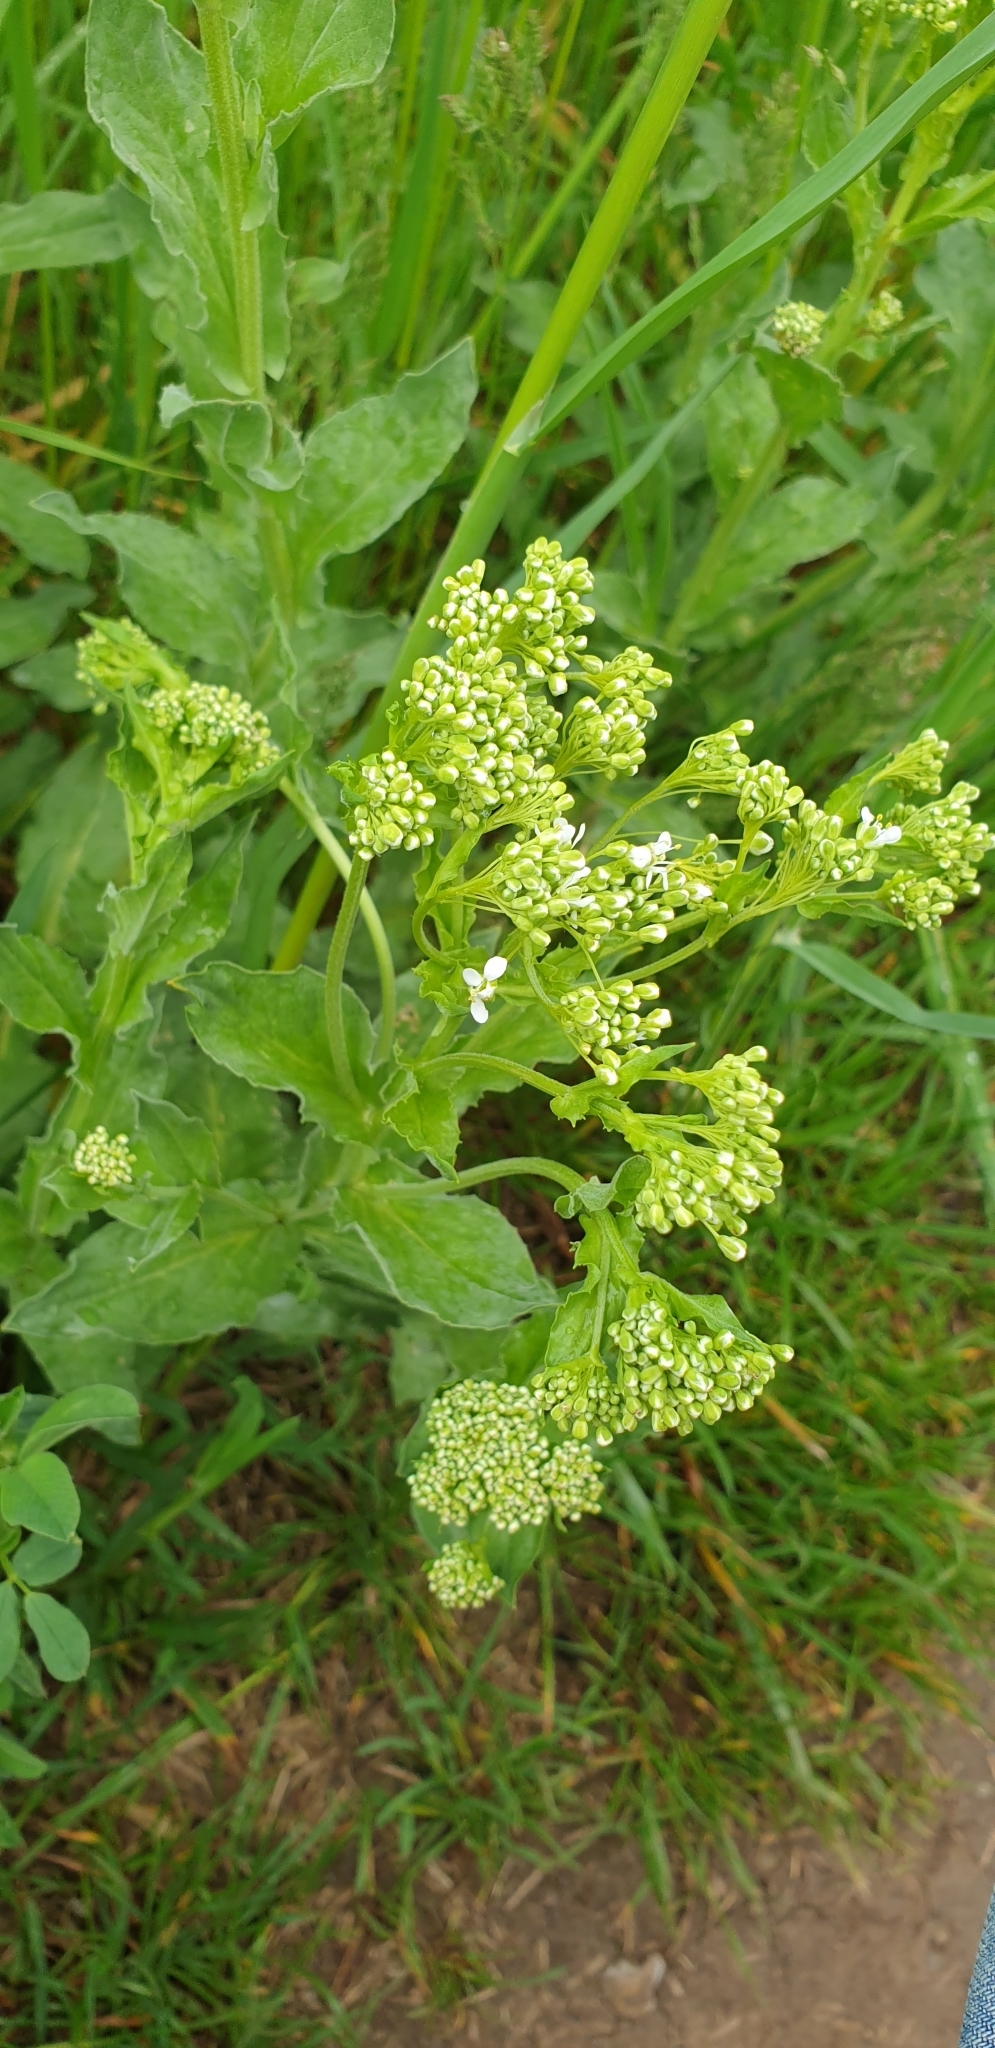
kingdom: Plantae
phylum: Tracheophyta
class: Magnoliopsida
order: Brassicales
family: Brassicaceae
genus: Lepidium
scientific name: Lepidium draba
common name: Hoary cress
